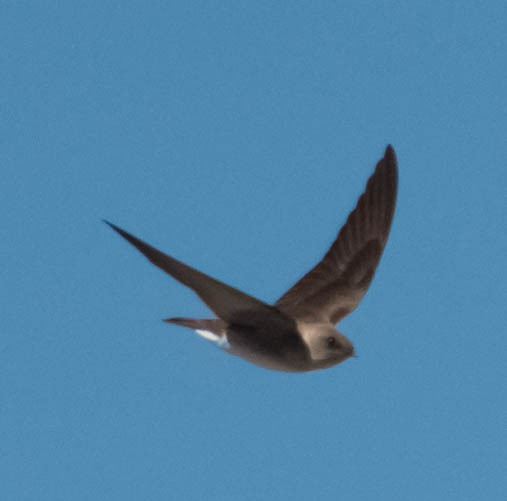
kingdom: Animalia
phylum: Chordata
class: Aves
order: Passeriformes
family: Hirundinidae
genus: Stelgidopteryx
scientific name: Stelgidopteryx serripennis
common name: Northern rough-winged swallow
